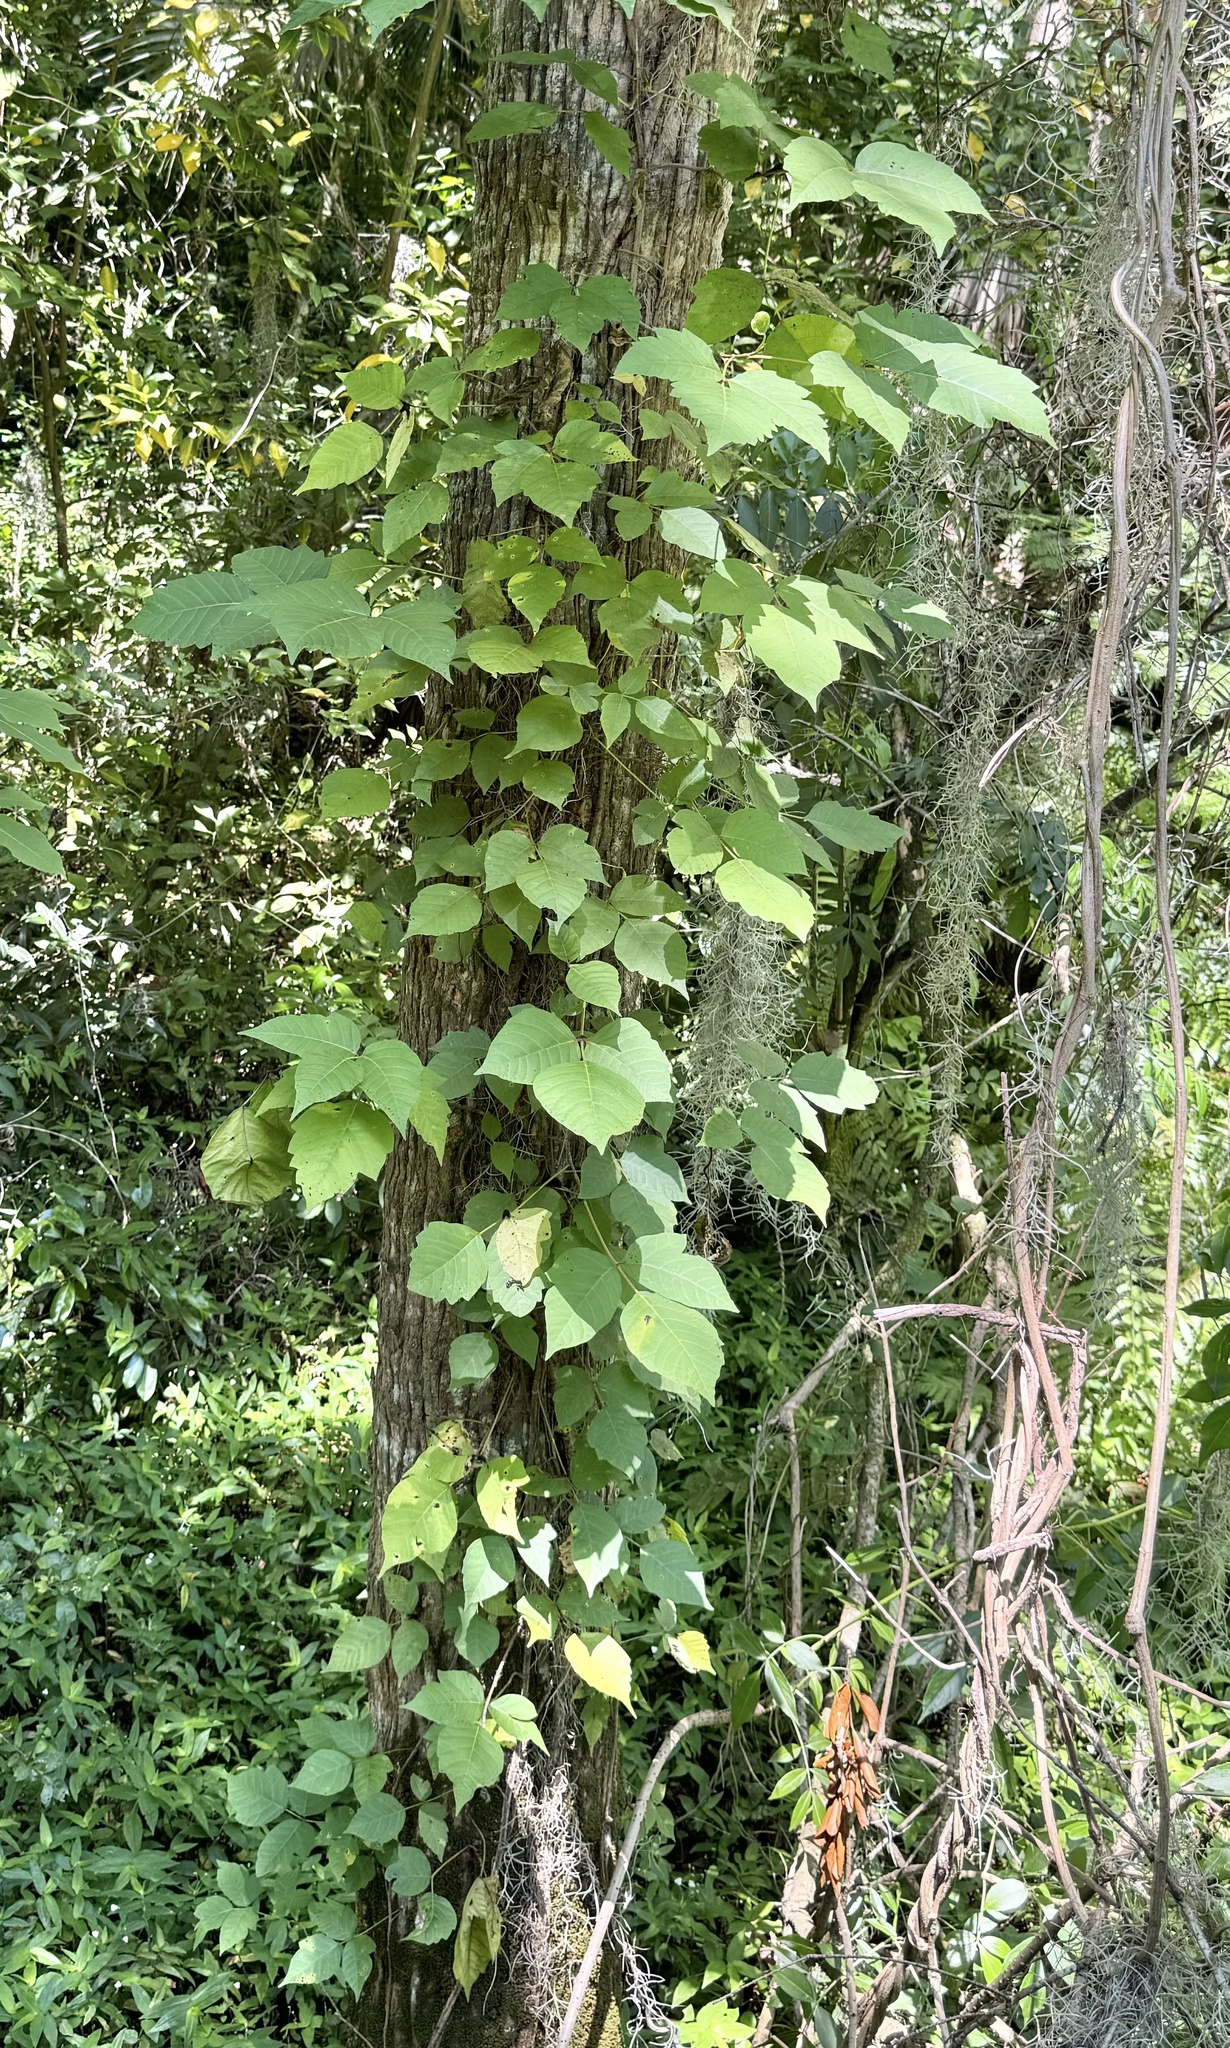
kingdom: Plantae
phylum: Tracheophyta
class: Magnoliopsida
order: Sapindales
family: Anacardiaceae
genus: Toxicodendron
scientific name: Toxicodendron radicans
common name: Poison ivy
